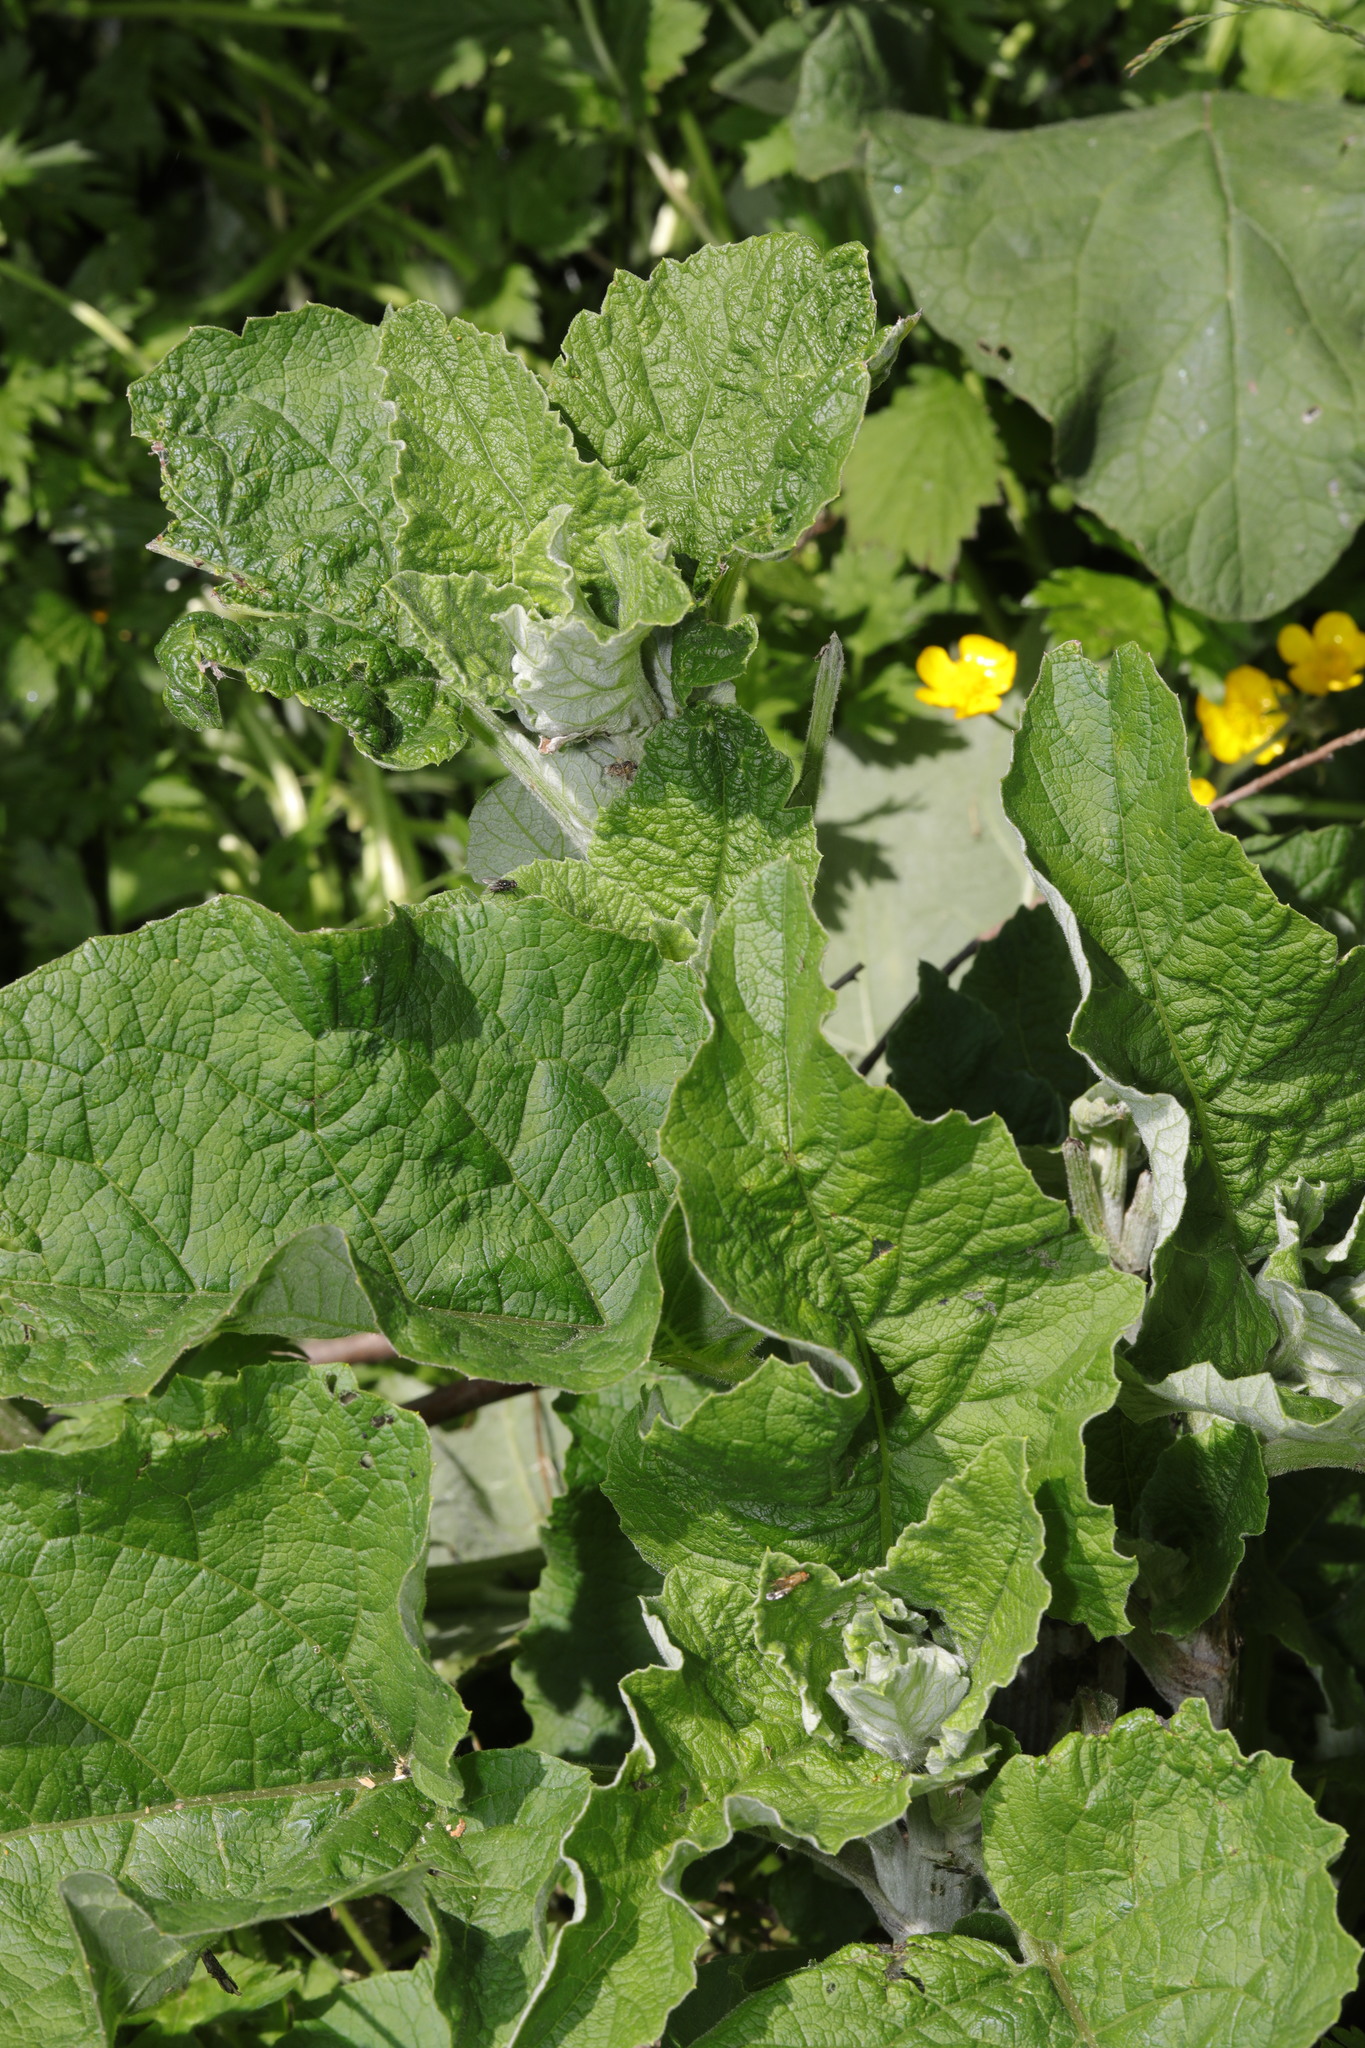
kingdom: Plantae
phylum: Tracheophyta
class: Magnoliopsida
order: Asterales
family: Asteraceae
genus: Arctium
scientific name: Arctium minus
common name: Lesser burdock
